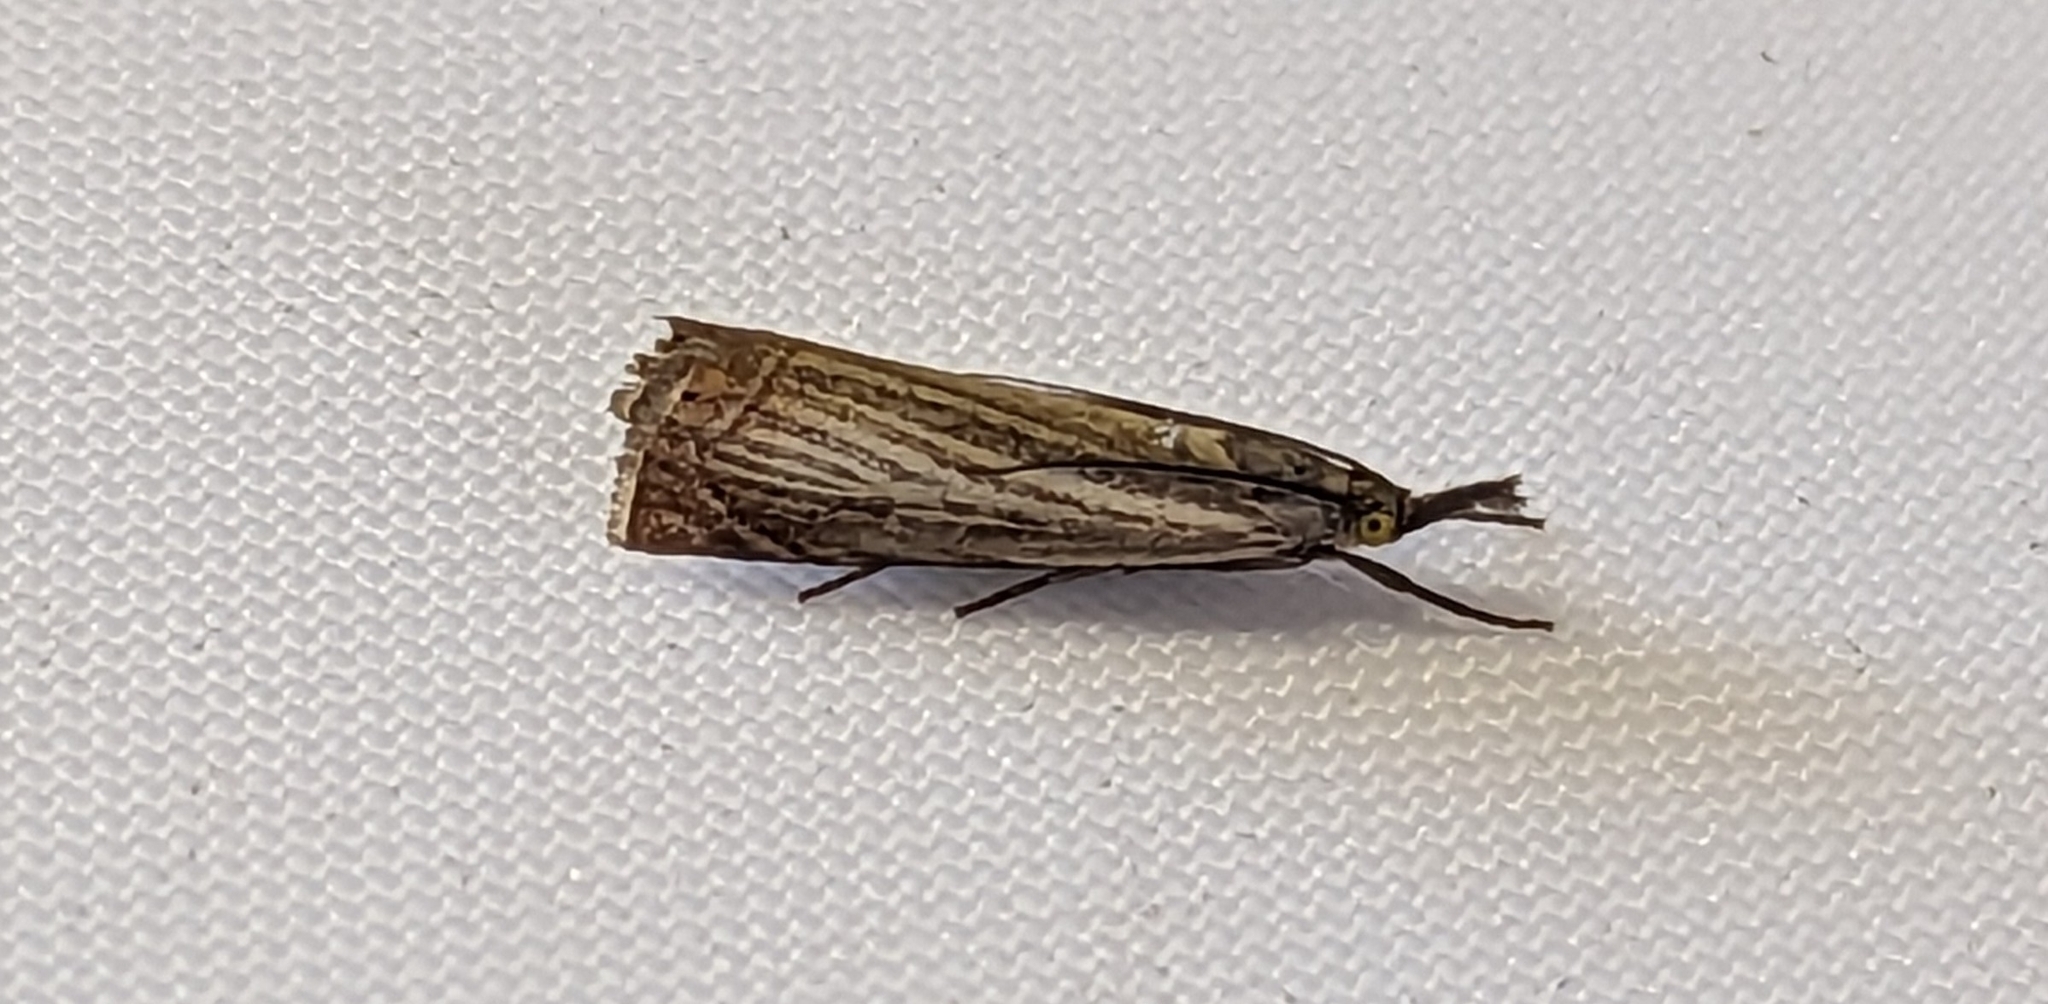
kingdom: Animalia
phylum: Arthropoda
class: Insecta
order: Lepidoptera
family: Crambidae
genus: Chrysoteuchia
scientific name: Chrysoteuchia culmella
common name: Garden grass-veneer
